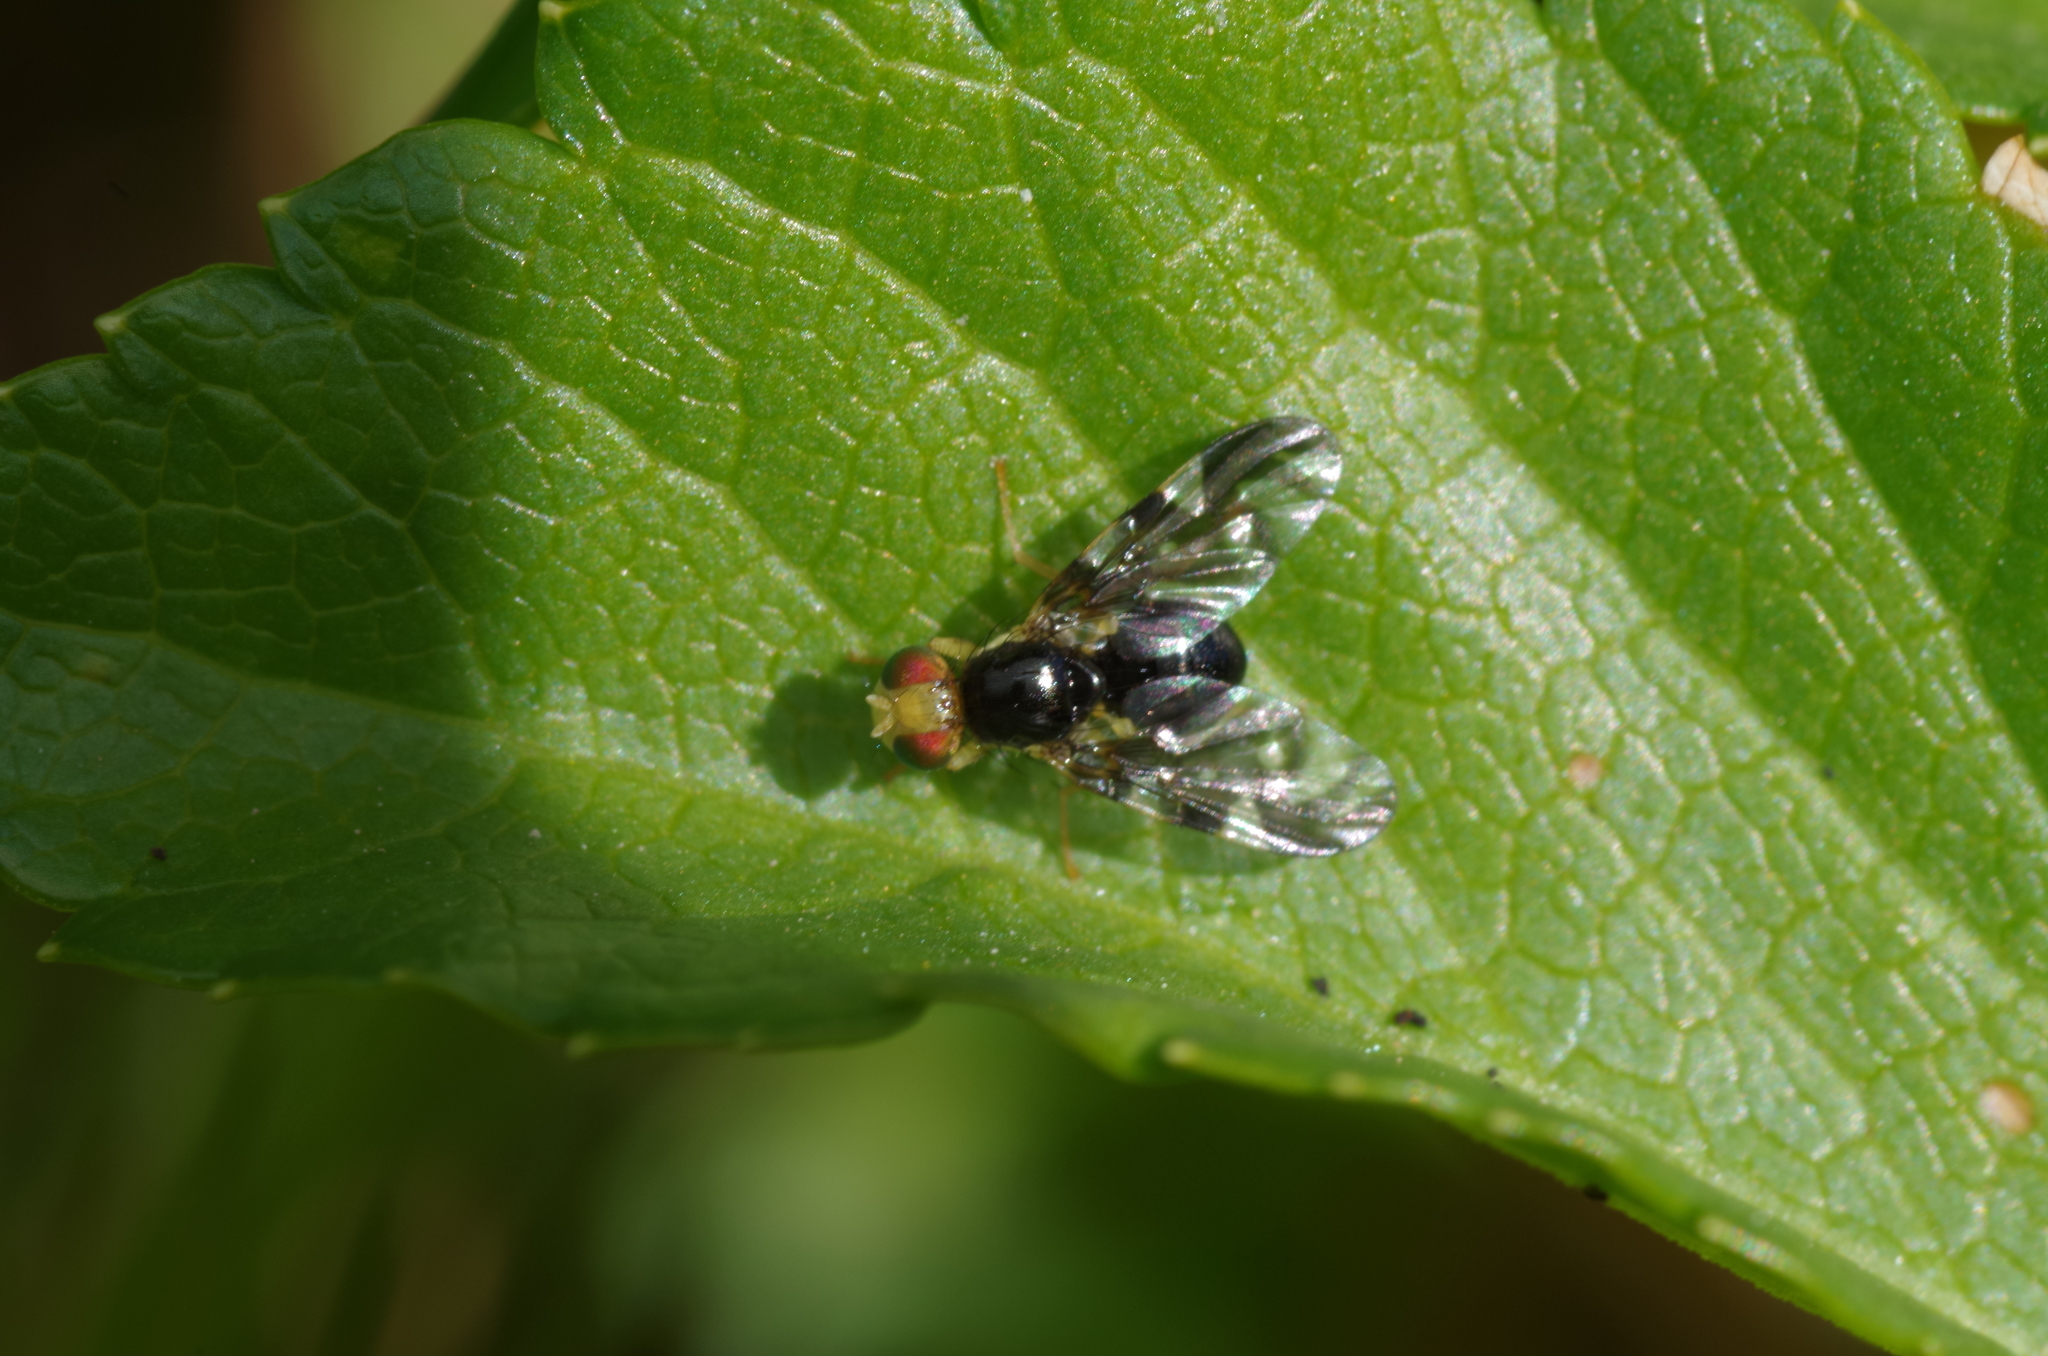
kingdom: Animalia
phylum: Arthropoda
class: Insecta
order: Diptera
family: Tephritidae
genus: Euleia
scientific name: Euleia heraclei
